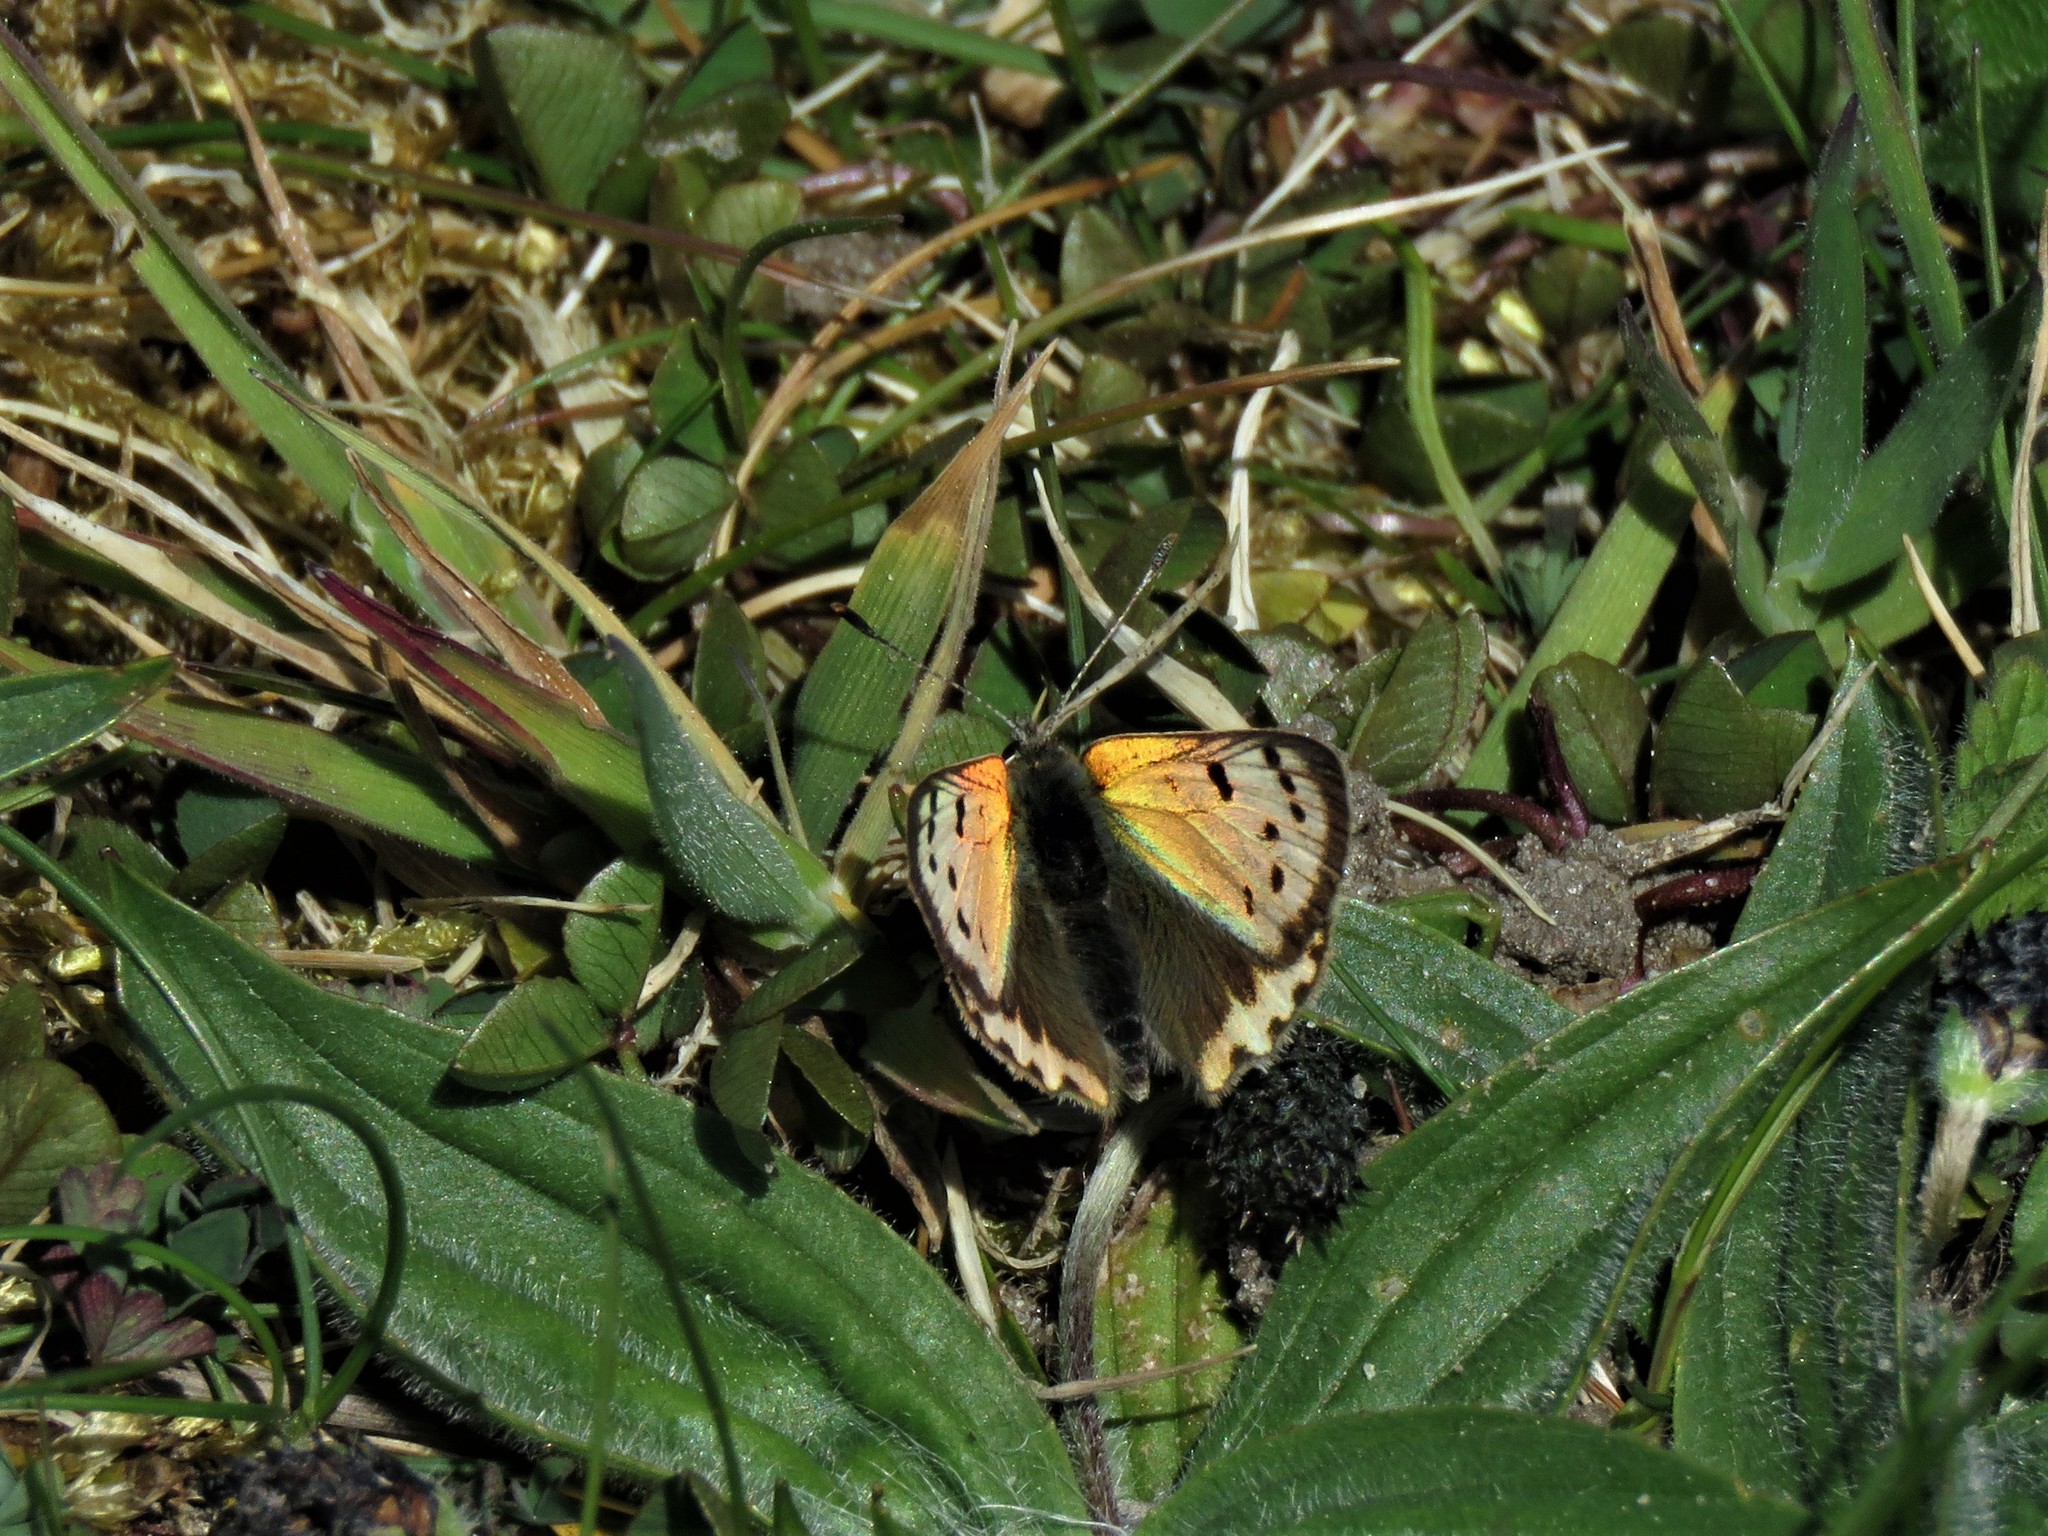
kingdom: Animalia
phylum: Arthropoda
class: Insecta
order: Lepidoptera
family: Lycaenidae
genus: Lycaena
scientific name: Lycaena phlaeas
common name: Small copper
